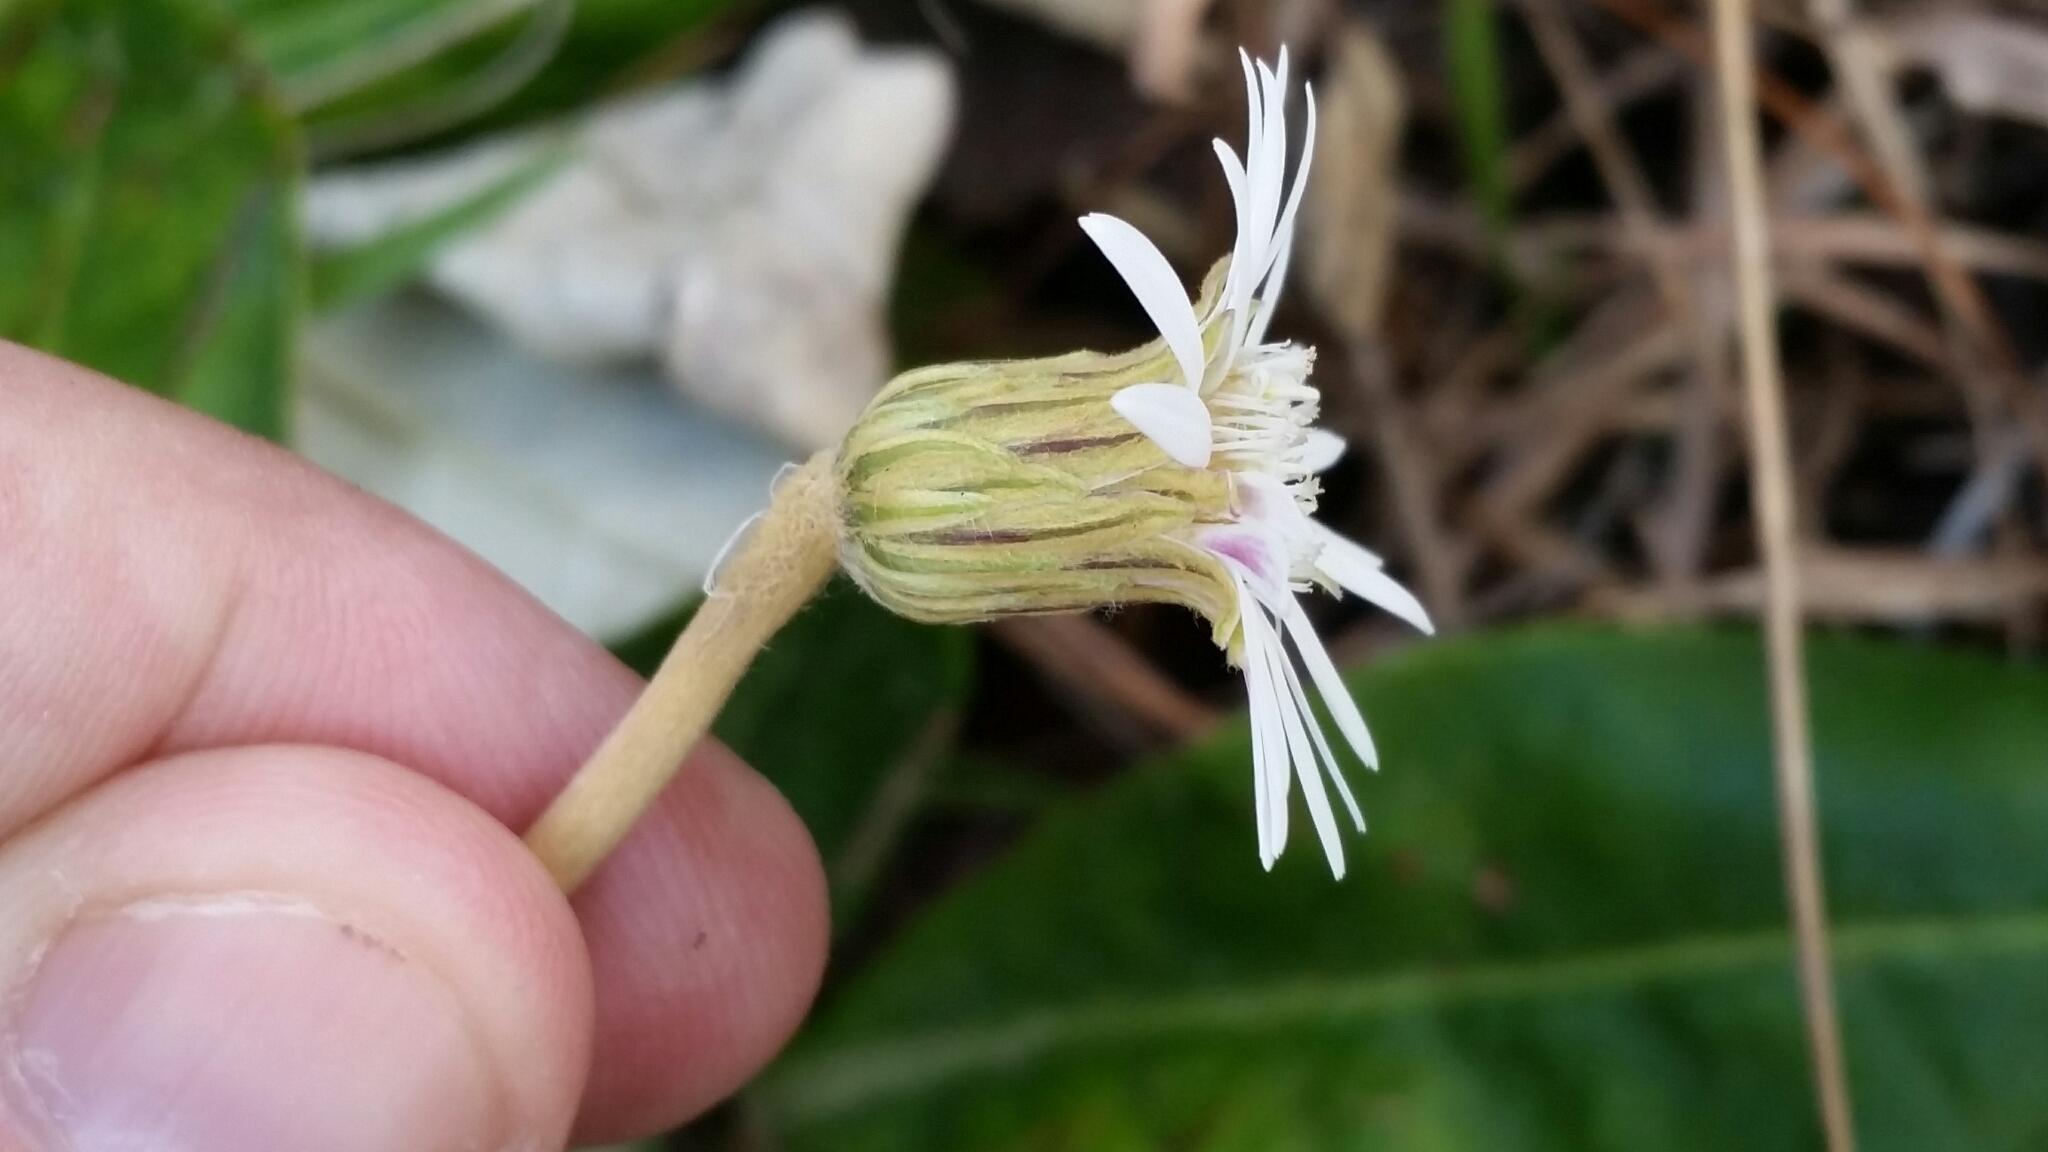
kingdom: Plantae
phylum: Tracheophyta
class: Magnoliopsida
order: Asterales
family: Asteraceae
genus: Chaptalia
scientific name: Chaptalia tomentosa
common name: Woolly sunbonnet
